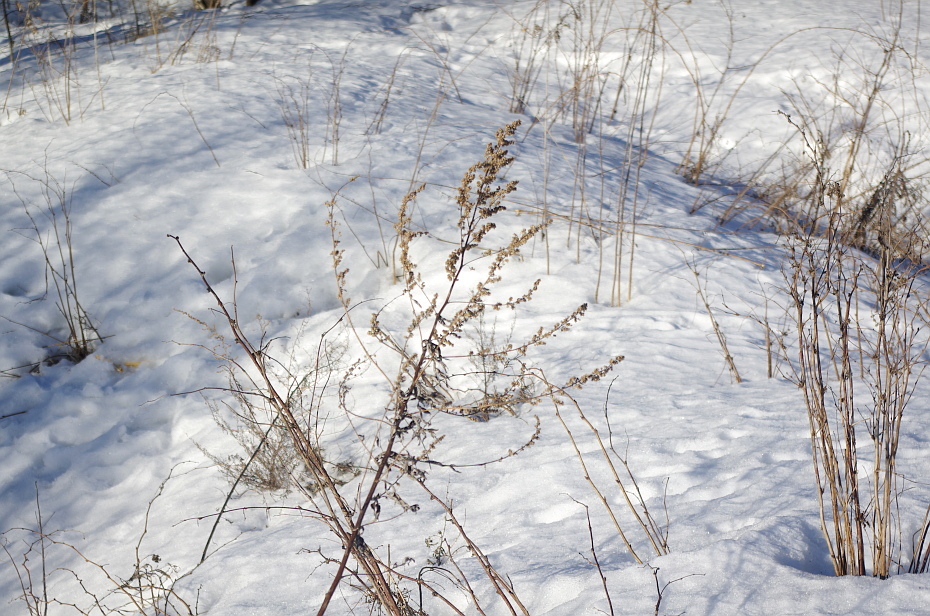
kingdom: Plantae
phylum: Tracheophyta
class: Magnoliopsida
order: Asterales
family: Asteraceae
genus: Artemisia
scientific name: Artemisia vulgaris
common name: Mugwort
